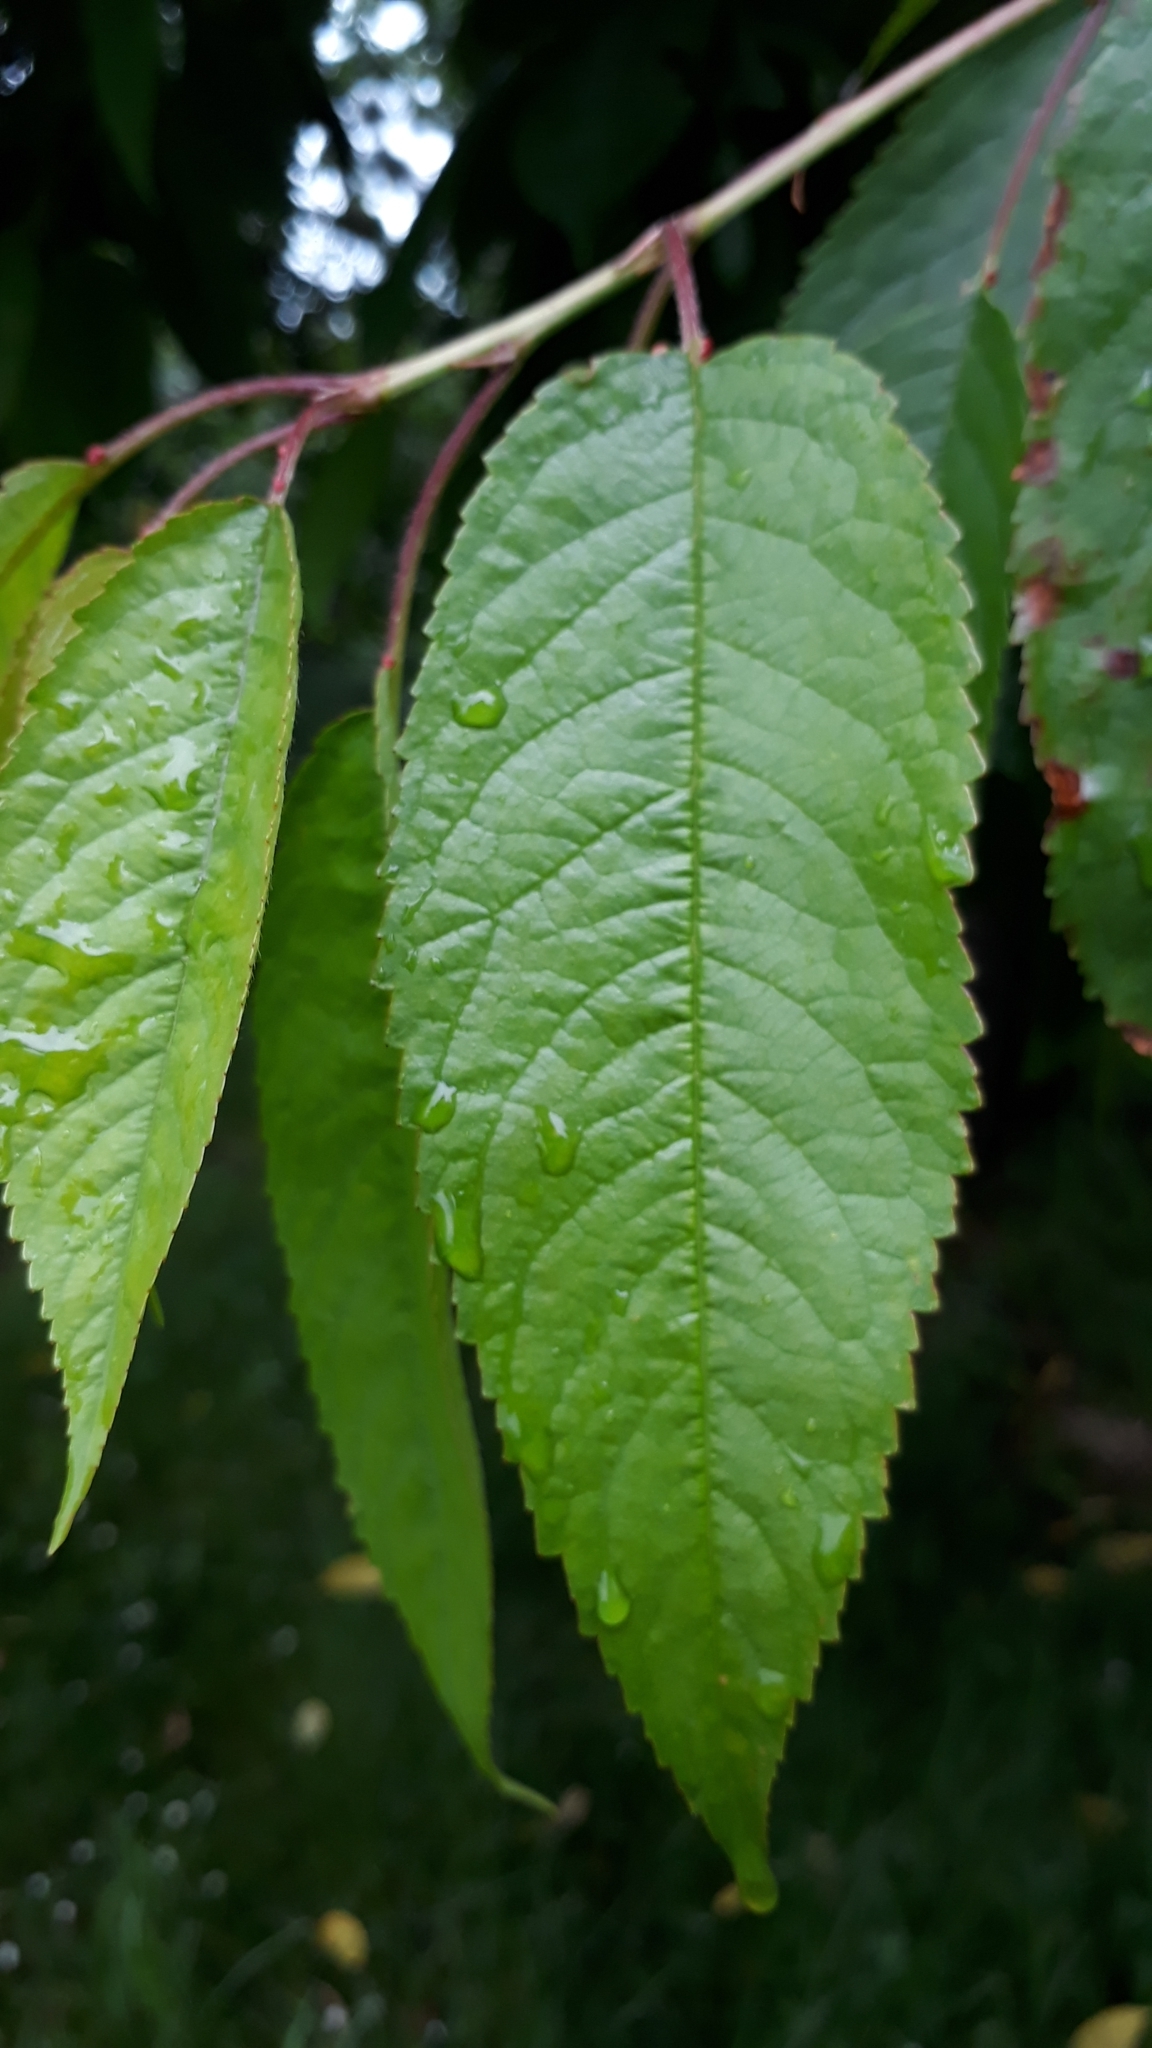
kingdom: Plantae
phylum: Tracheophyta
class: Magnoliopsida
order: Rosales
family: Rosaceae
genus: Prunus
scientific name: Prunus avium
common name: Sweet cherry
